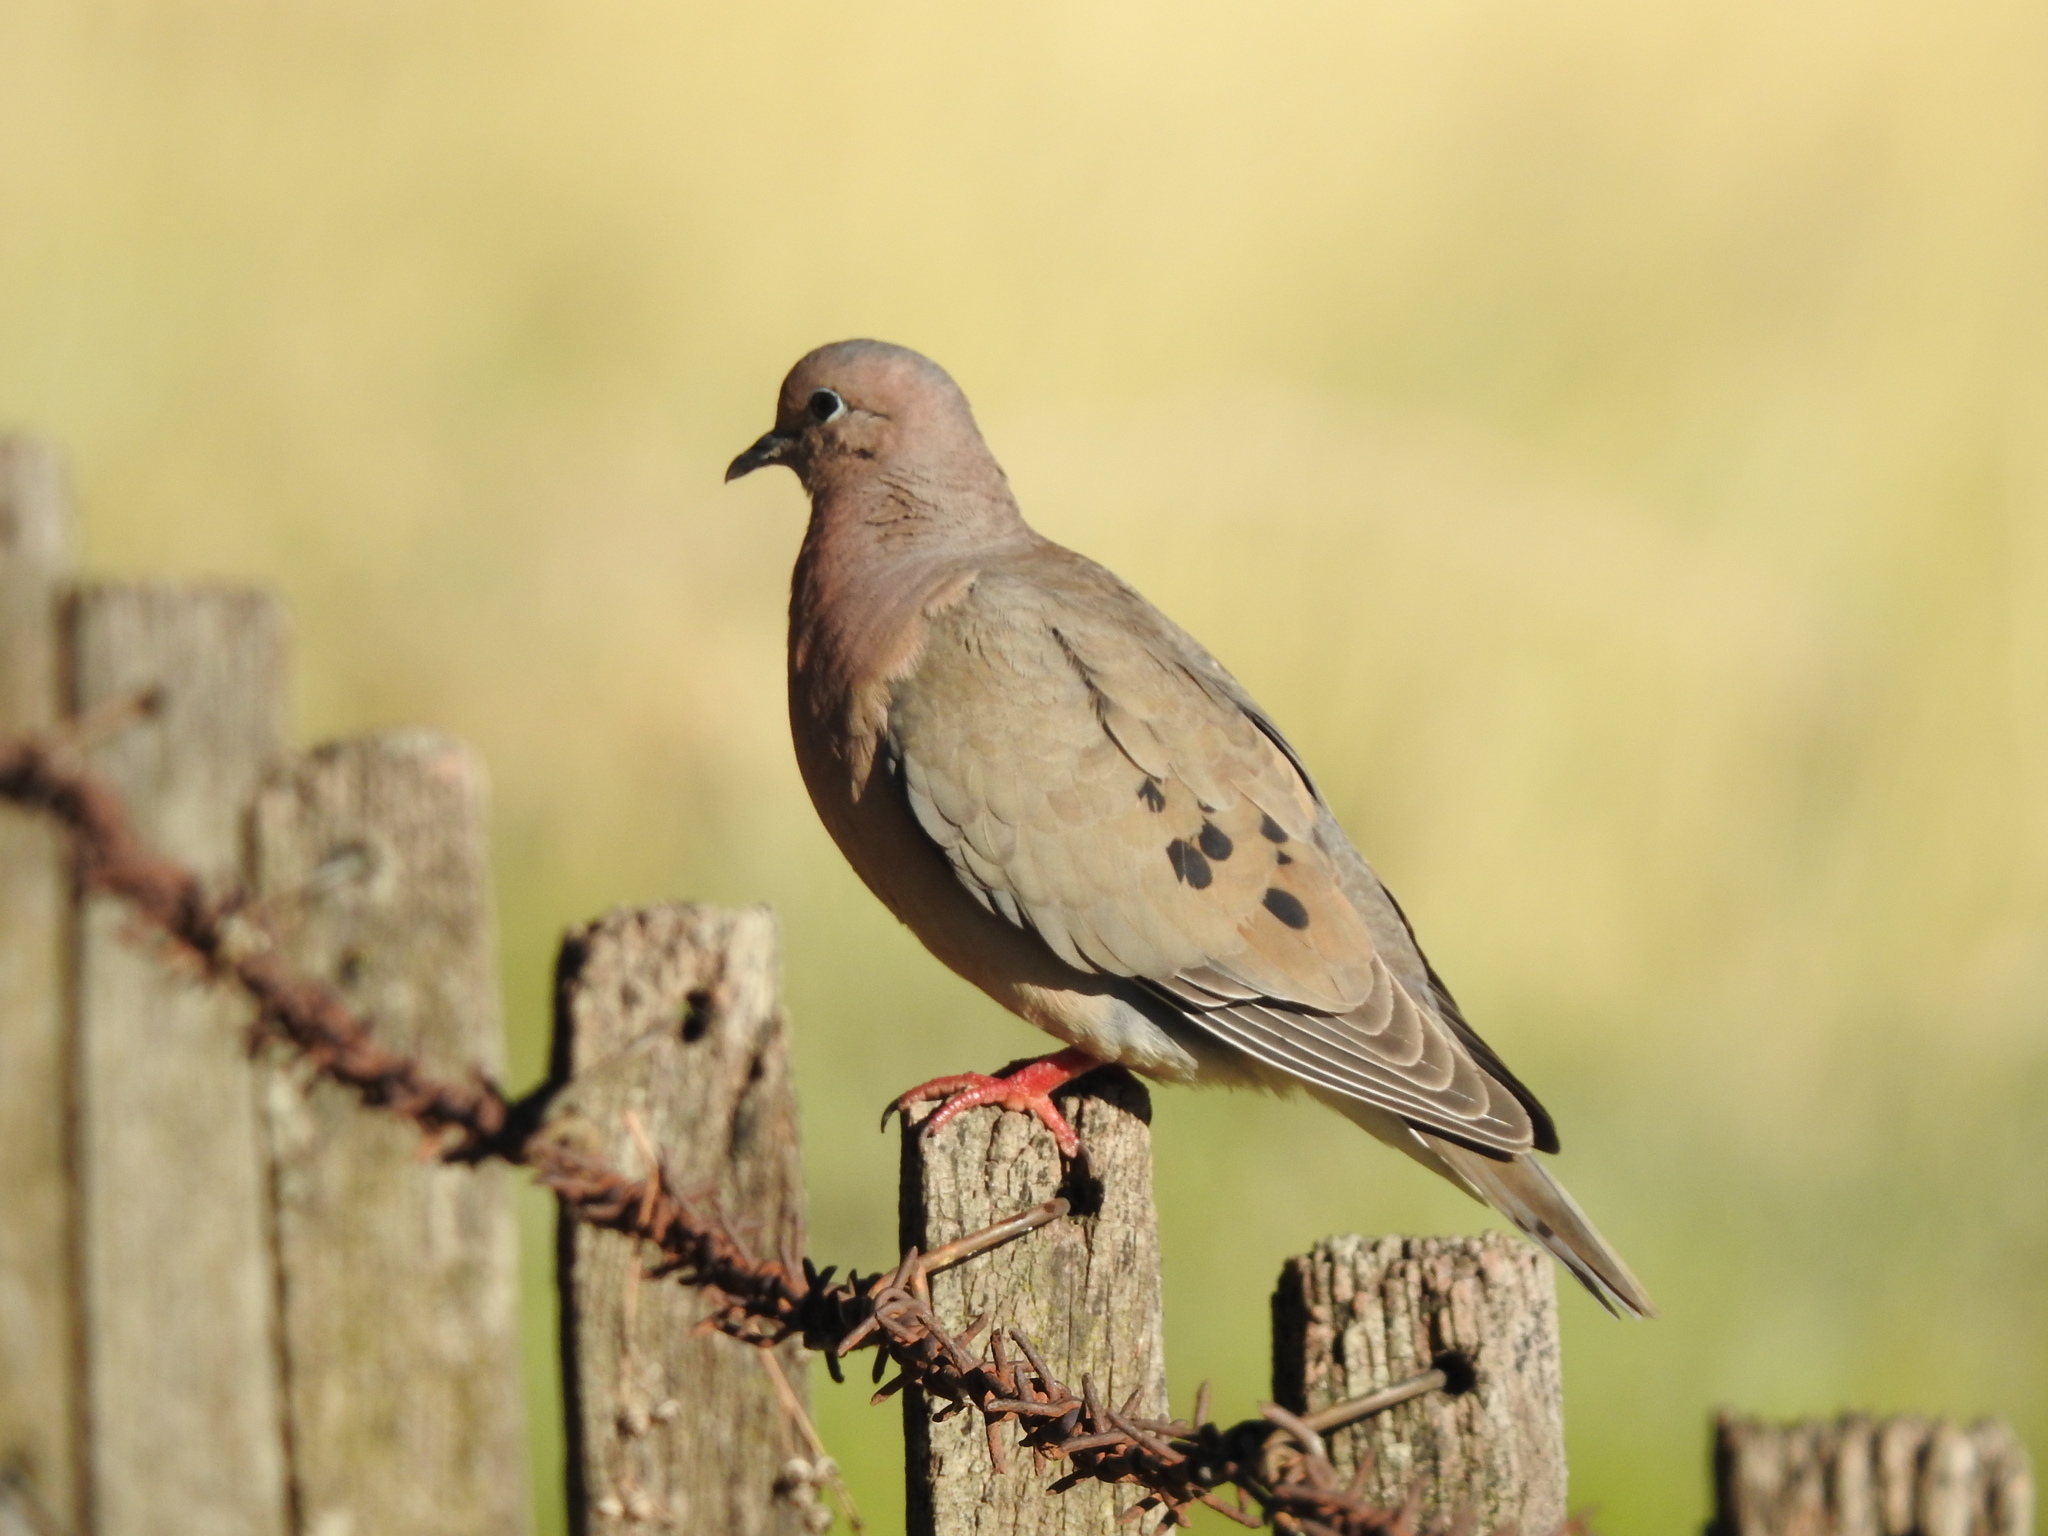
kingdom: Animalia
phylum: Chordata
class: Aves
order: Columbiformes
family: Columbidae
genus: Zenaida
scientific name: Zenaida auriculata
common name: Eared dove
